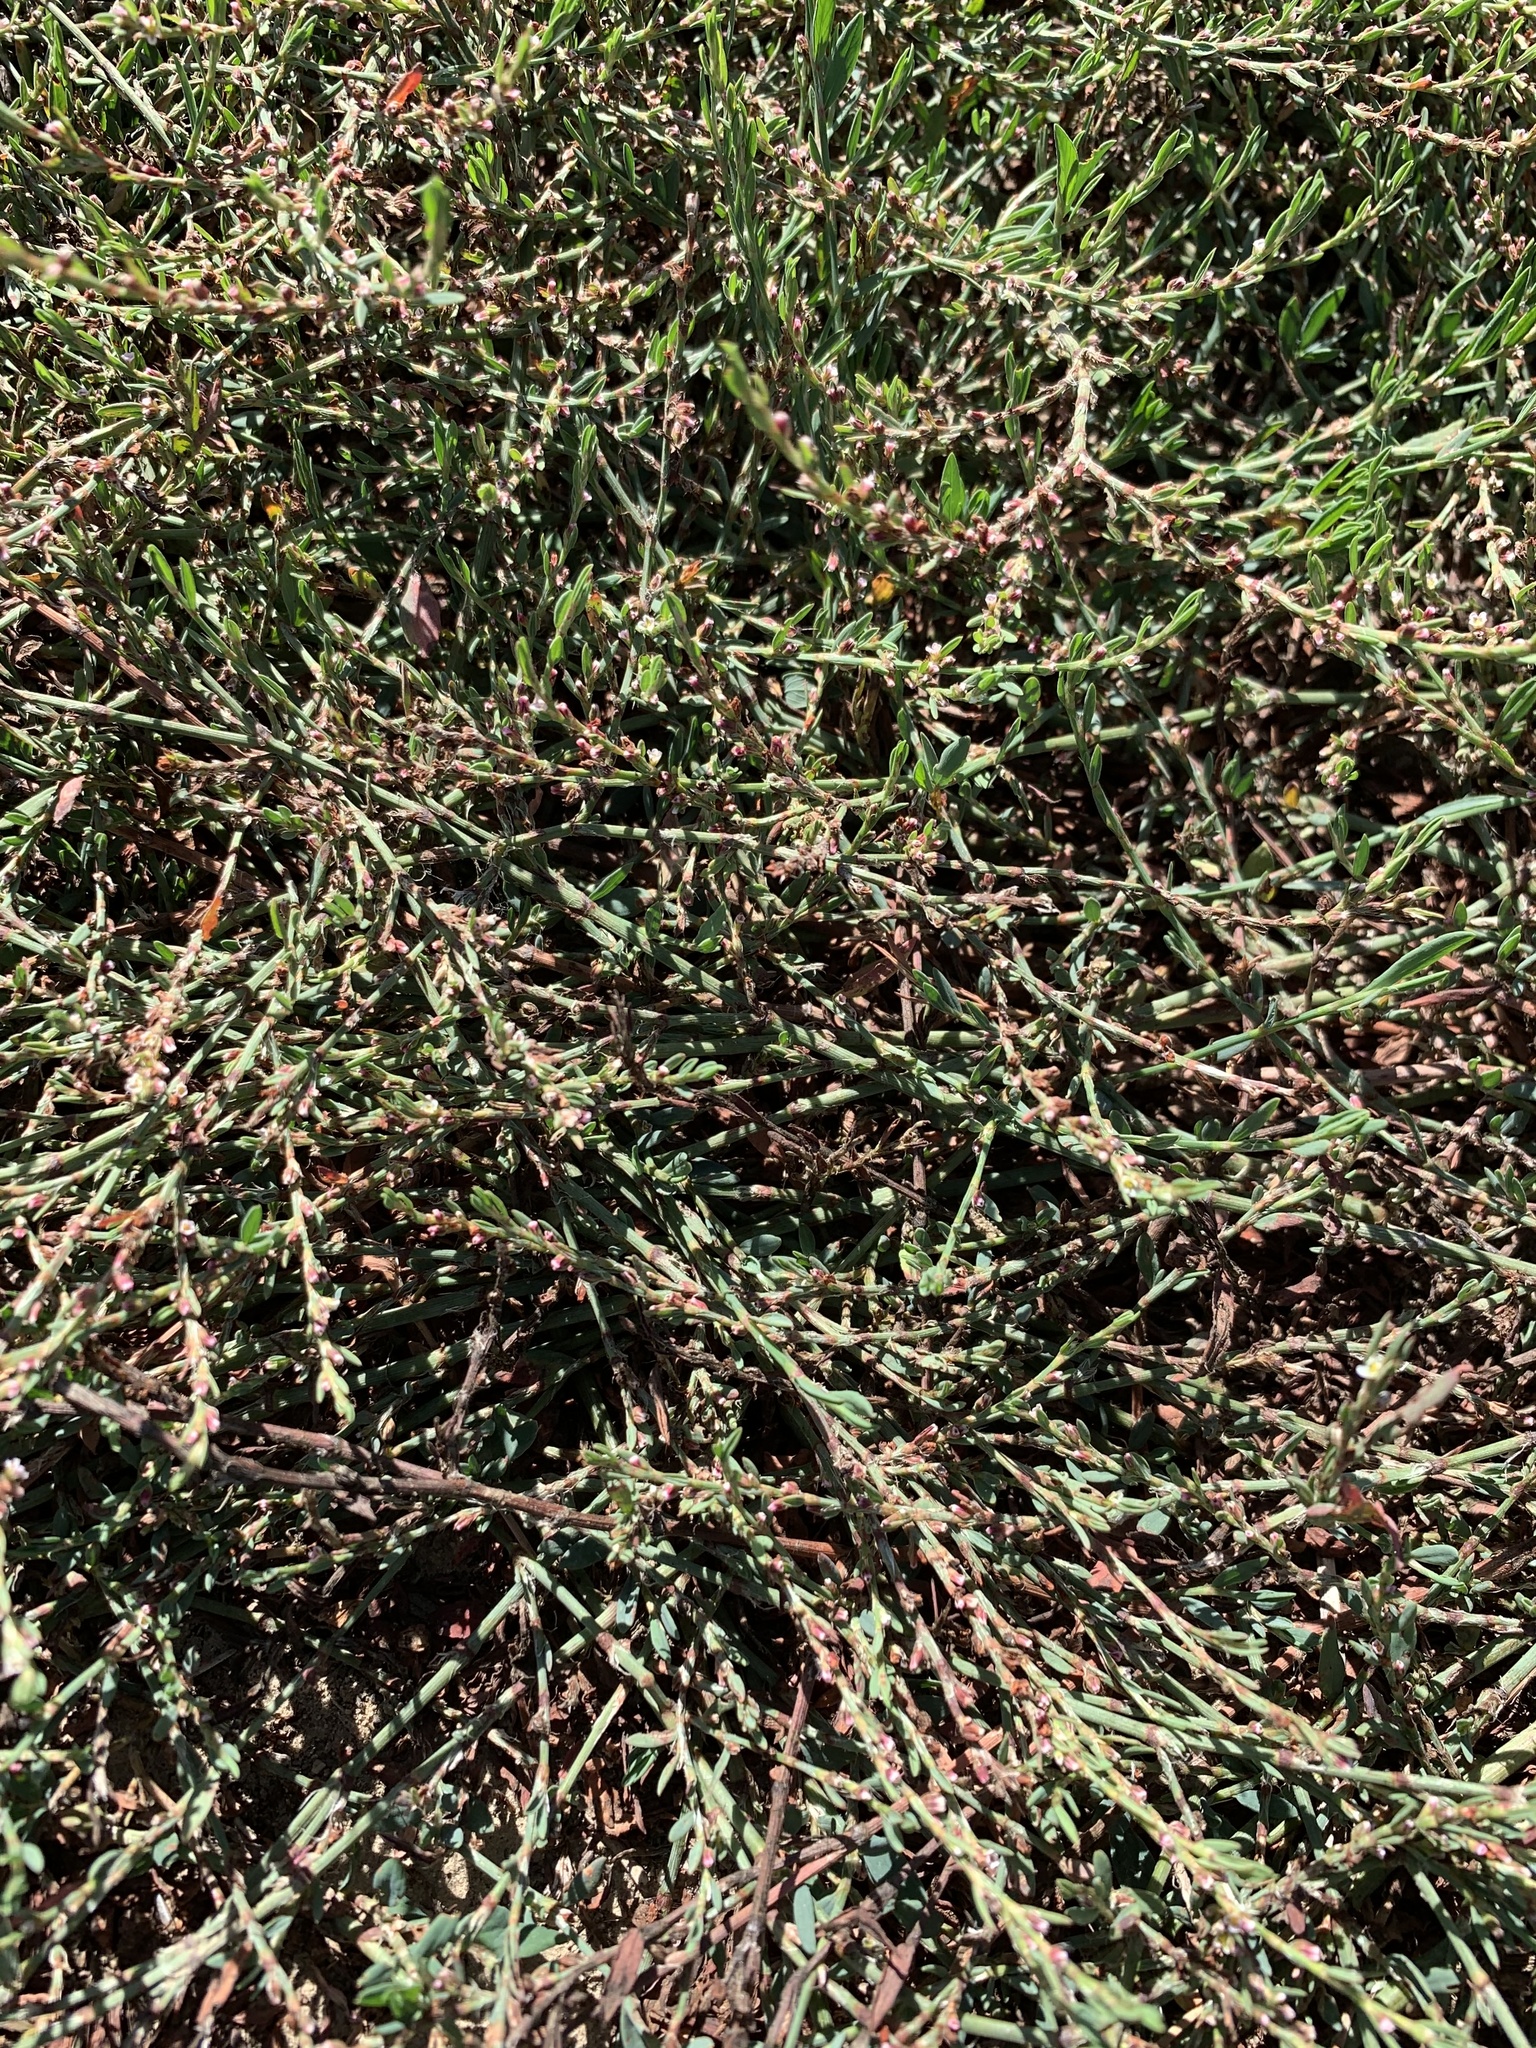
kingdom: Plantae
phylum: Tracheophyta
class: Magnoliopsida
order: Caryophyllales
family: Polygonaceae
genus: Polygonum
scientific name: Polygonum aviculare
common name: Prostrate knotweed
